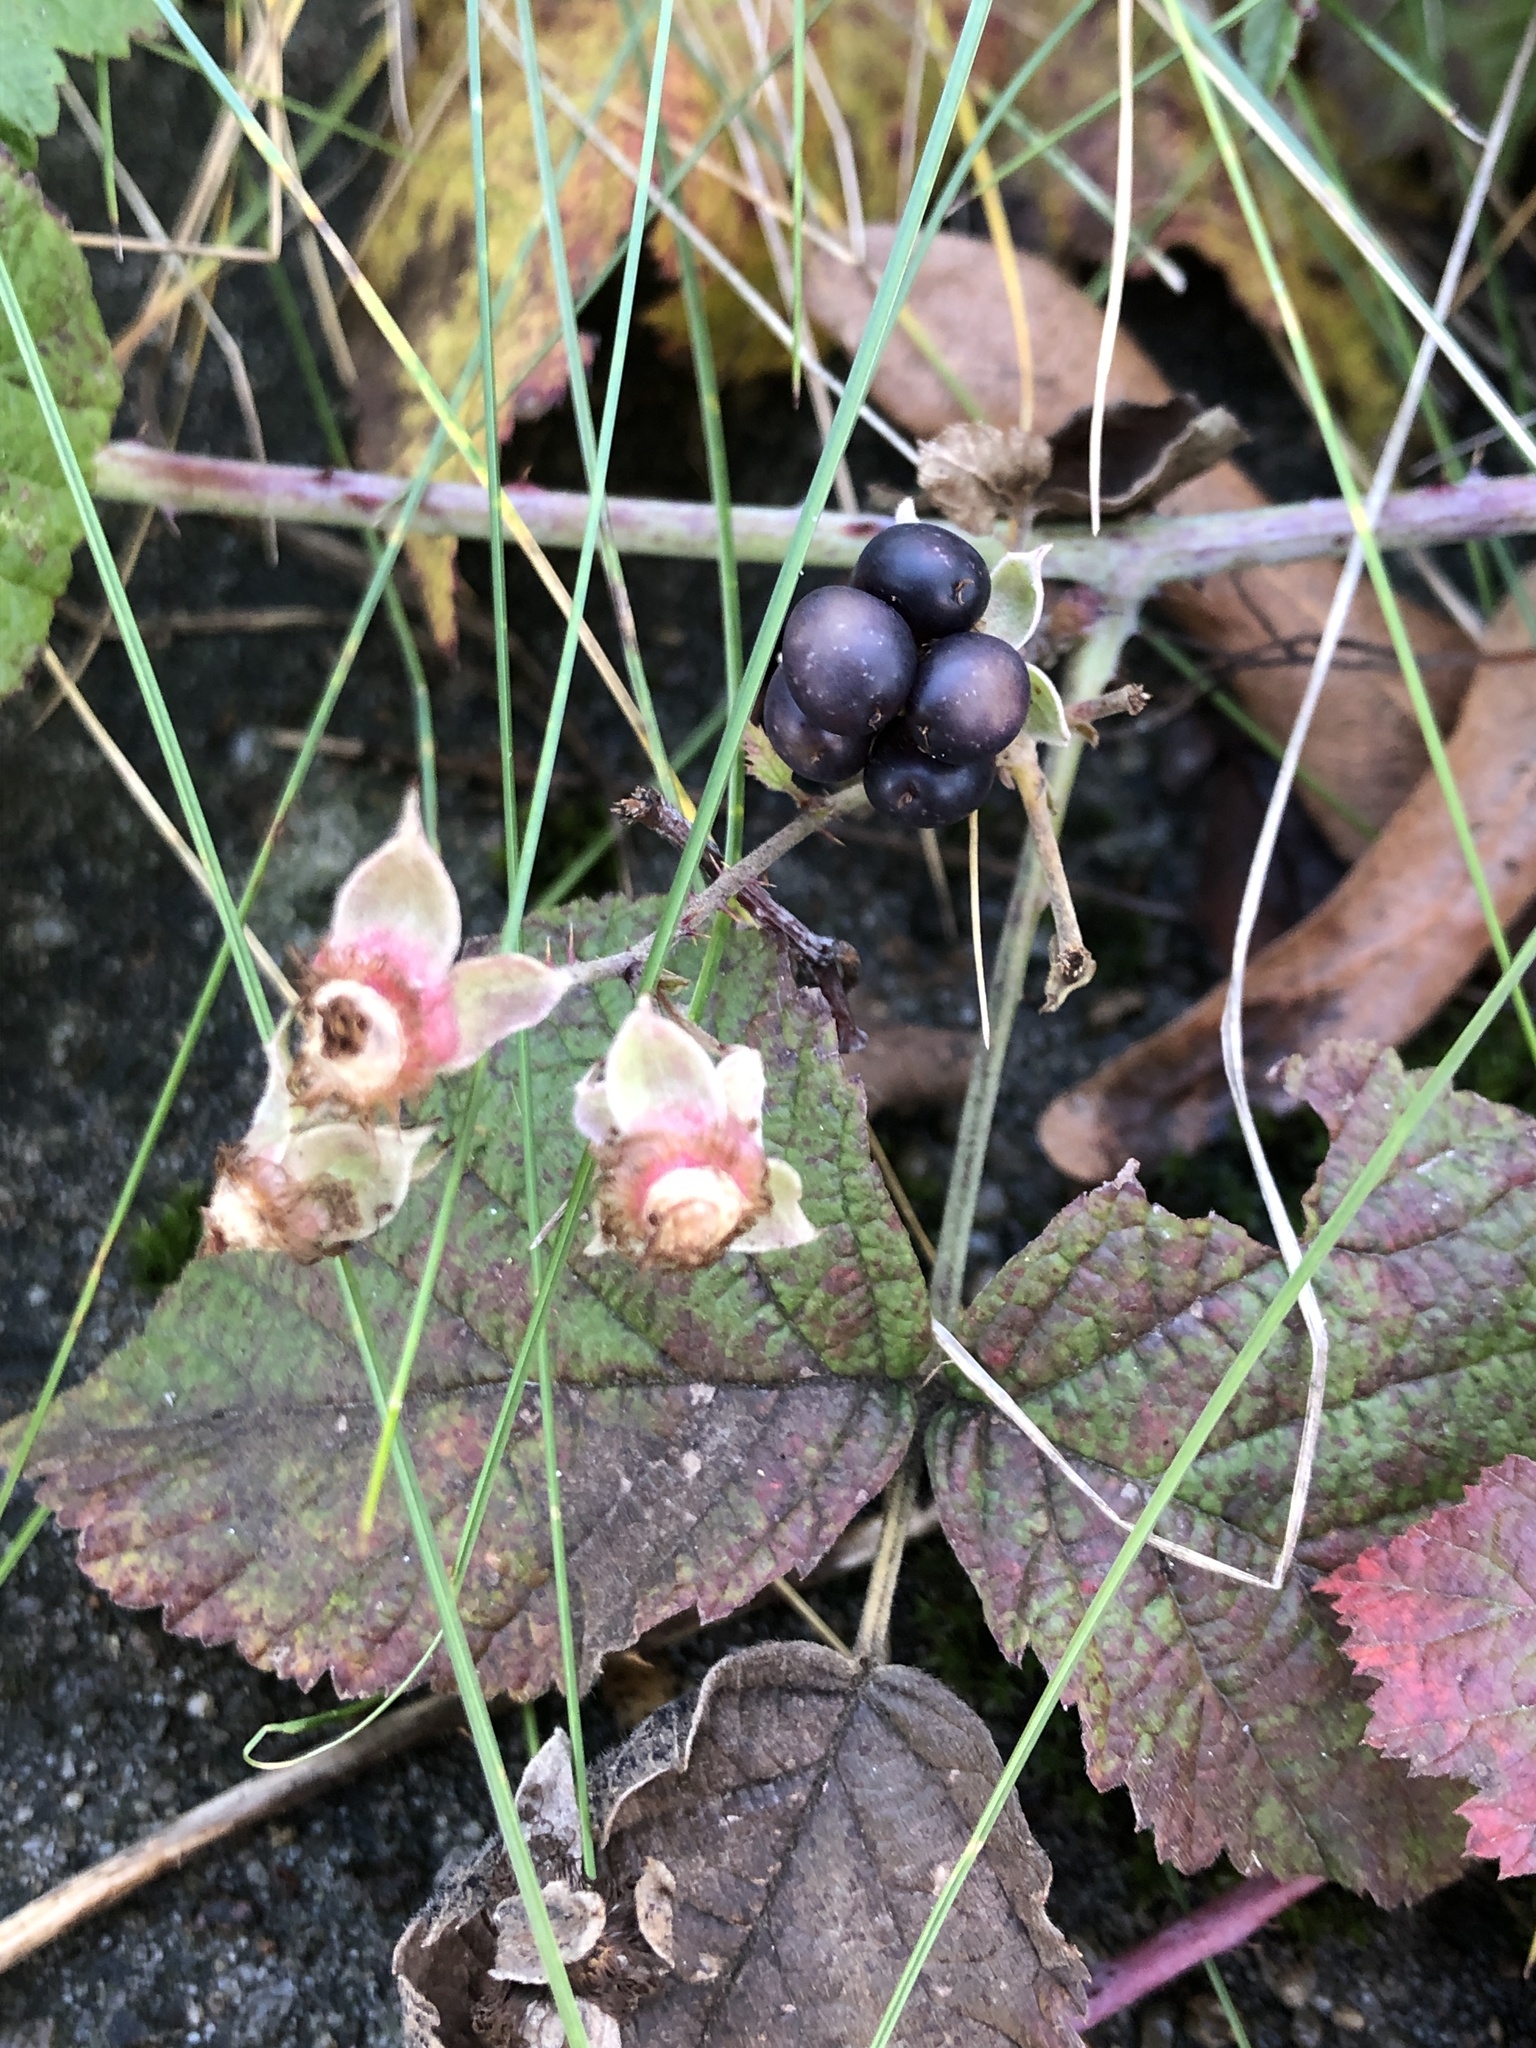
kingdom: Plantae
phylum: Tracheophyta
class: Magnoliopsida
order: Rosales
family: Rosaceae
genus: Rubus
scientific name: Rubus caesius
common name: Dewberry
